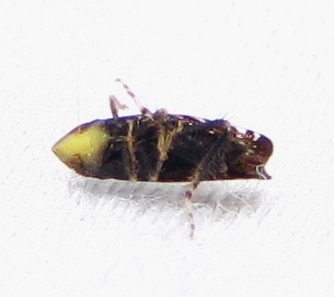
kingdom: Animalia
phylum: Arthropoda
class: Insecta
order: Hemiptera
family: Cicadellidae
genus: Scaphytopius
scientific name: Scaphytopius frontalis
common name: The yellow-faced leafhopper
